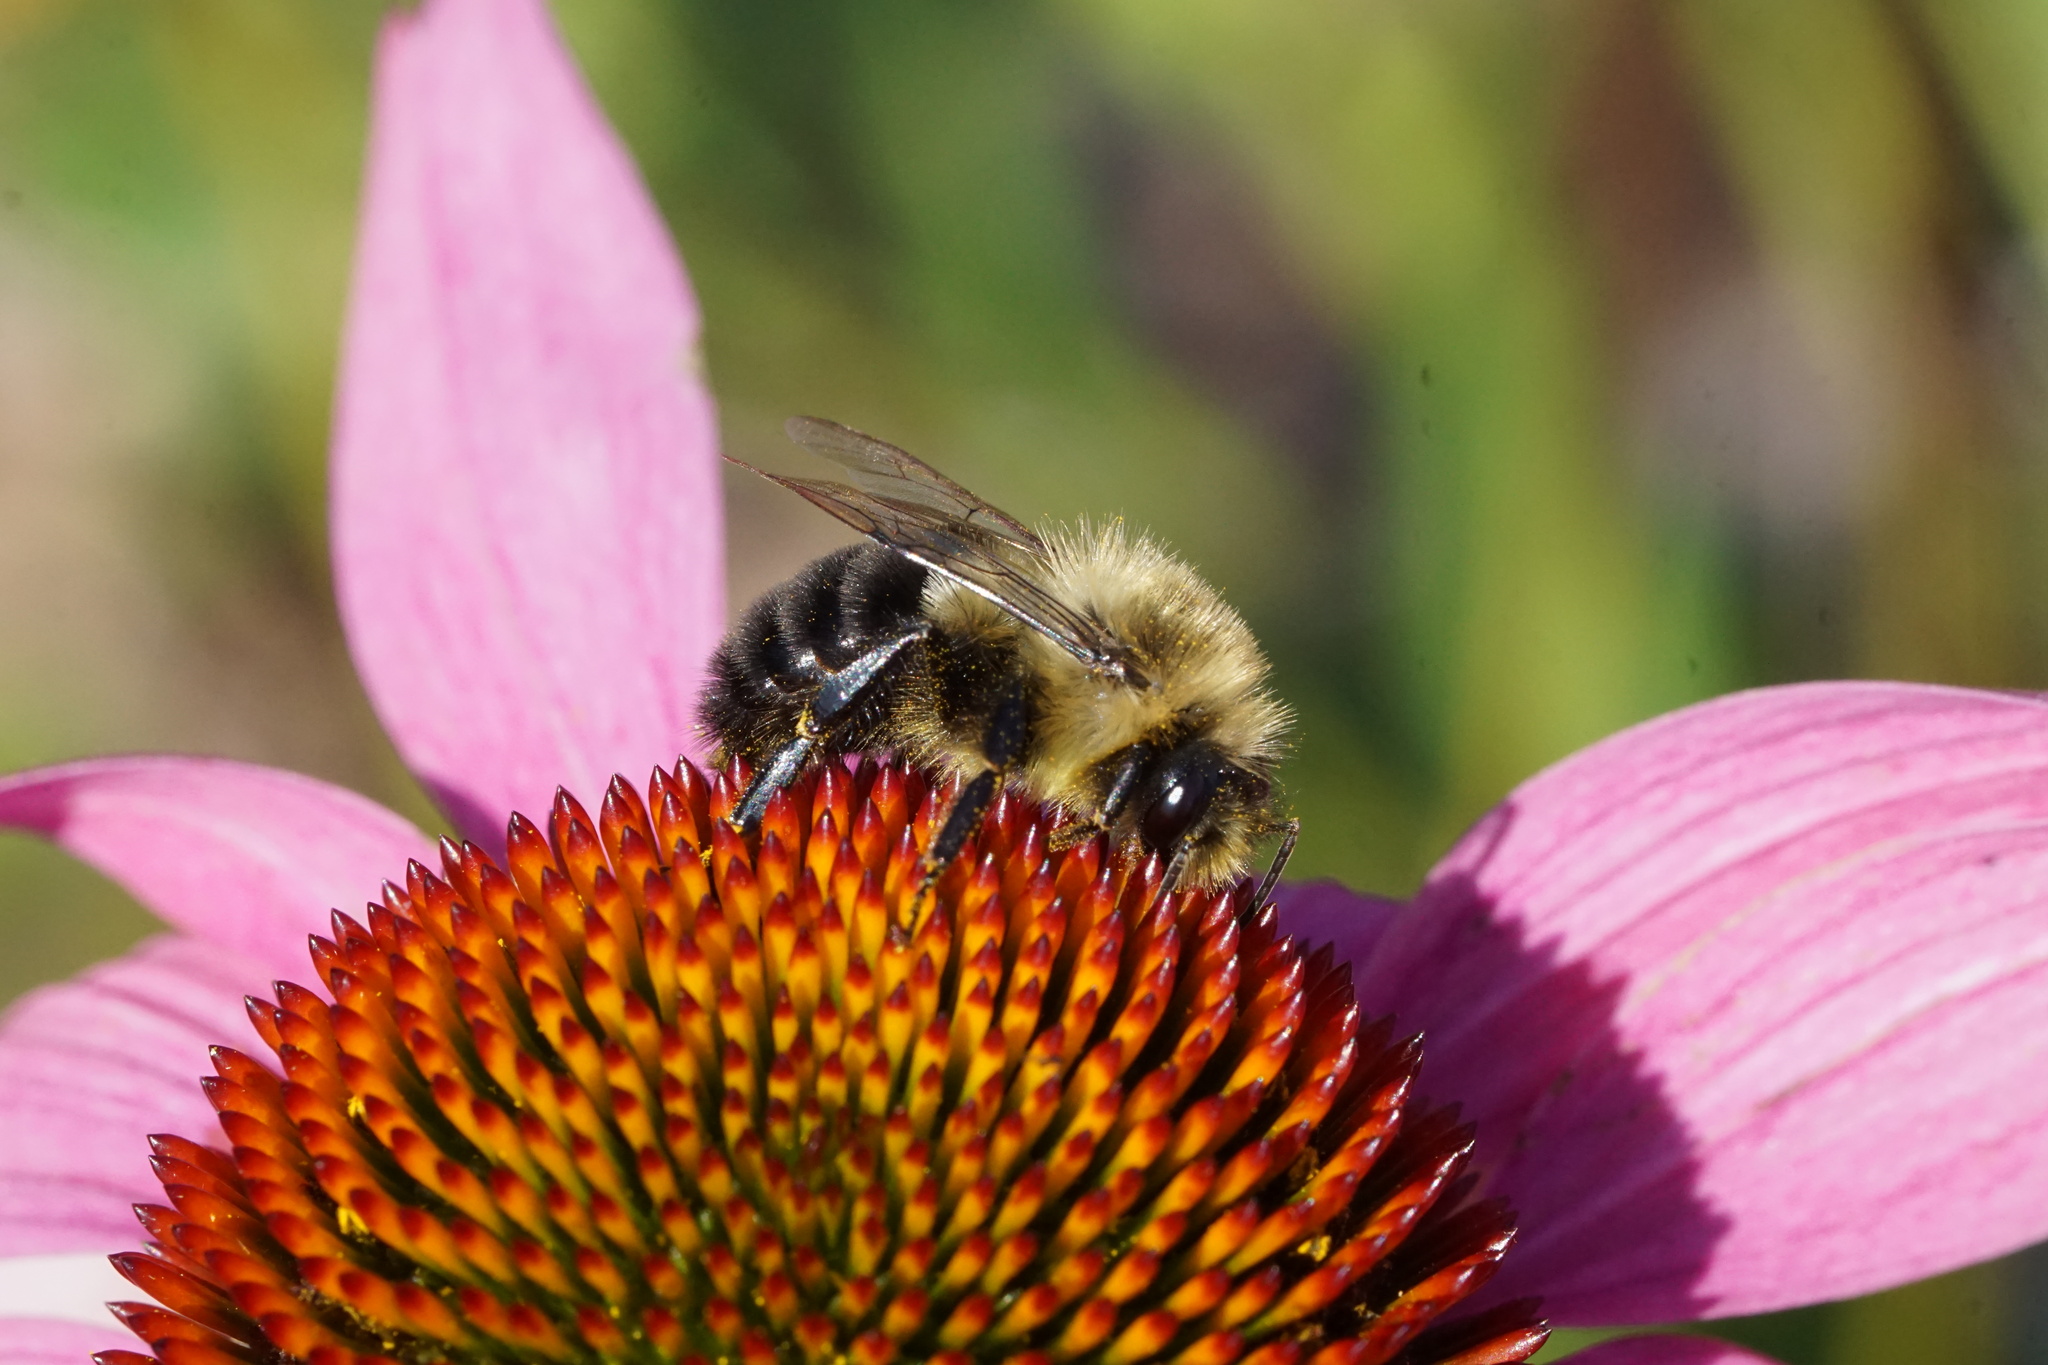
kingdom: Animalia
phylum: Arthropoda
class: Insecta
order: Hymenoptera
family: Apidae
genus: Bombus
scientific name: Bombus impatiens
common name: Common eastern bumble bee
